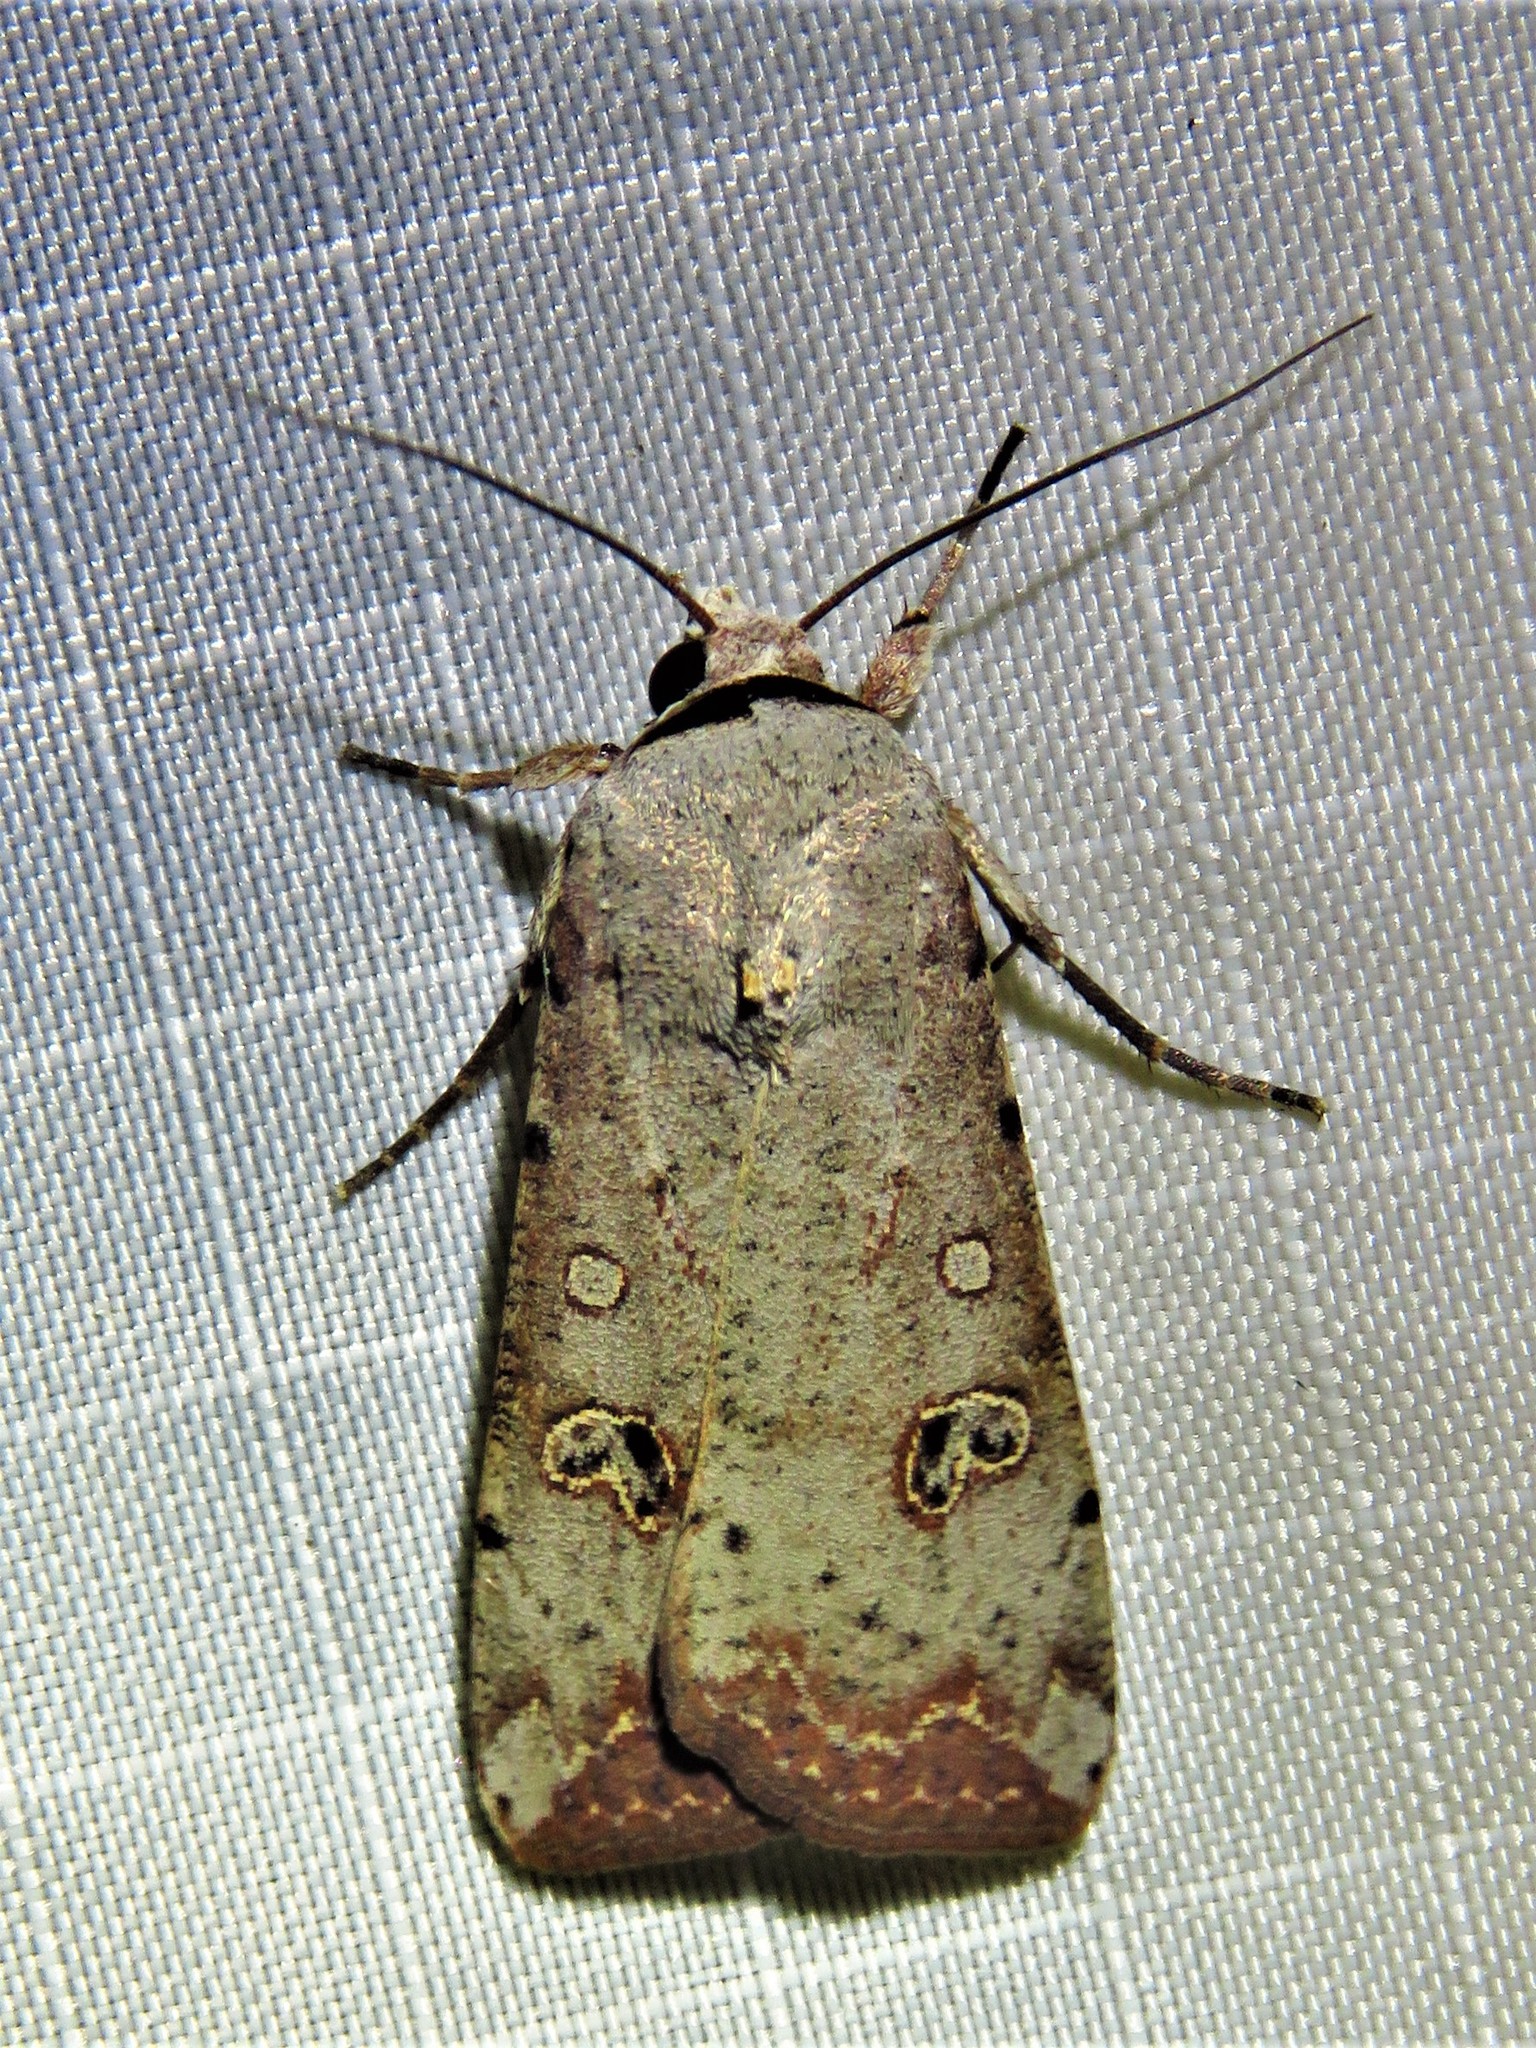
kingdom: Animalia
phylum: Arthropoda
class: Insecta
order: Lepidoptera
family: Noctuidae
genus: Anicla
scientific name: Anicla infecta
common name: Green cutworm
